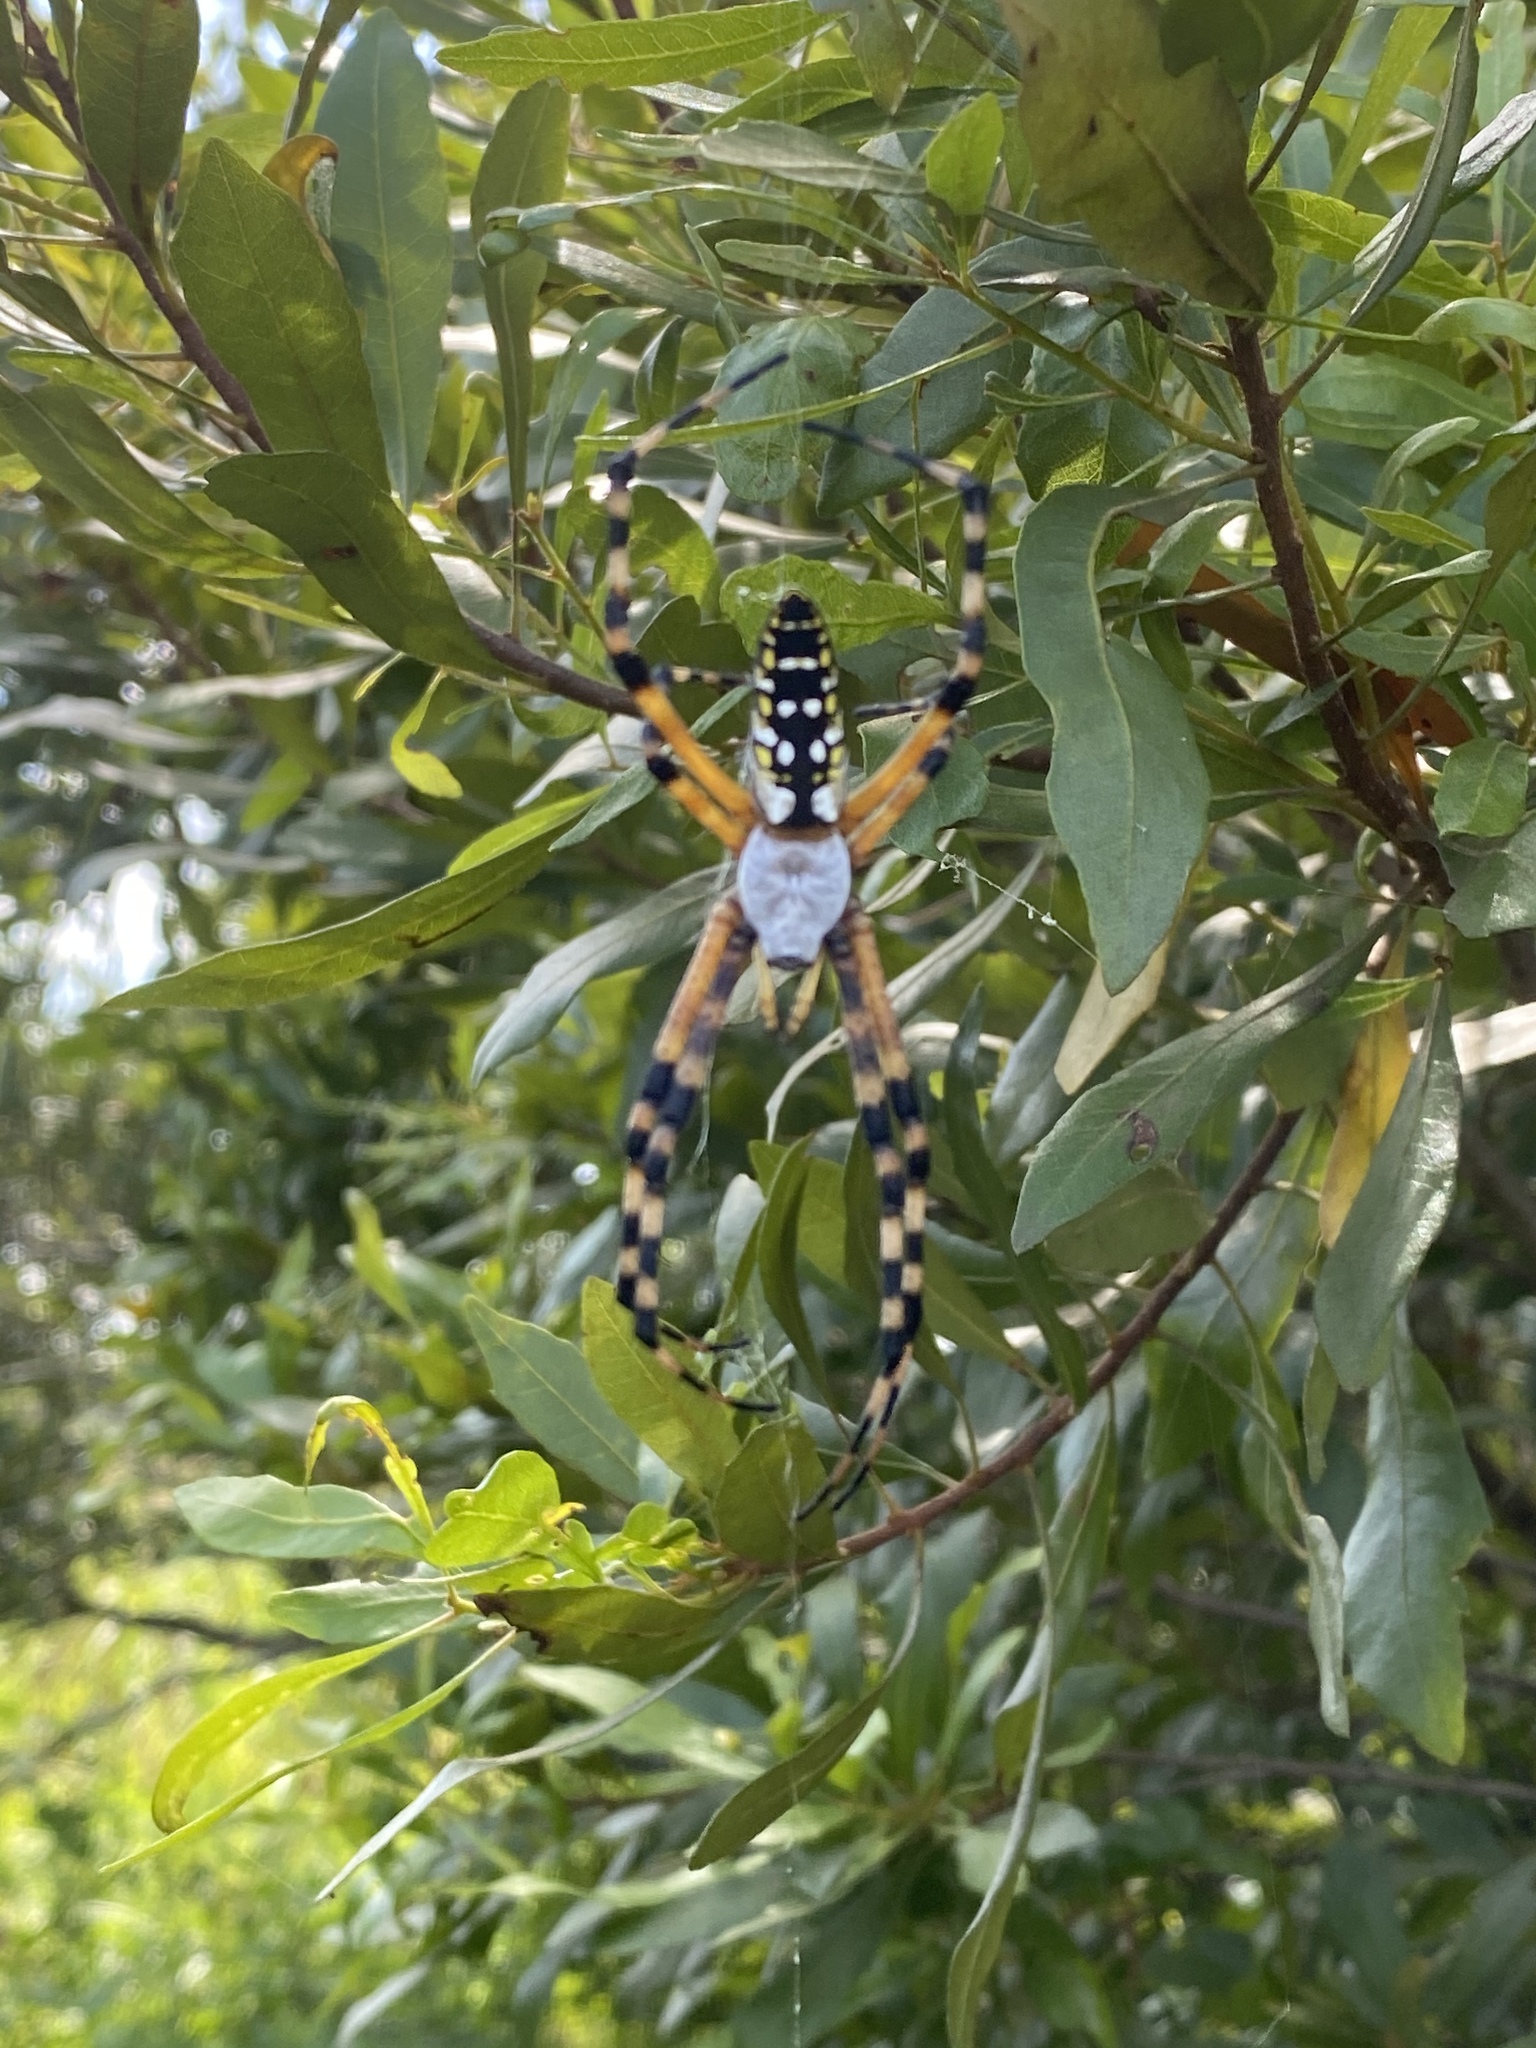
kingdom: Animalia
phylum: Arthropoda
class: Arachnida
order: Araneae
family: Araneidae
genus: Argiope
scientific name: Argiope aurantia
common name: Orb weavers
